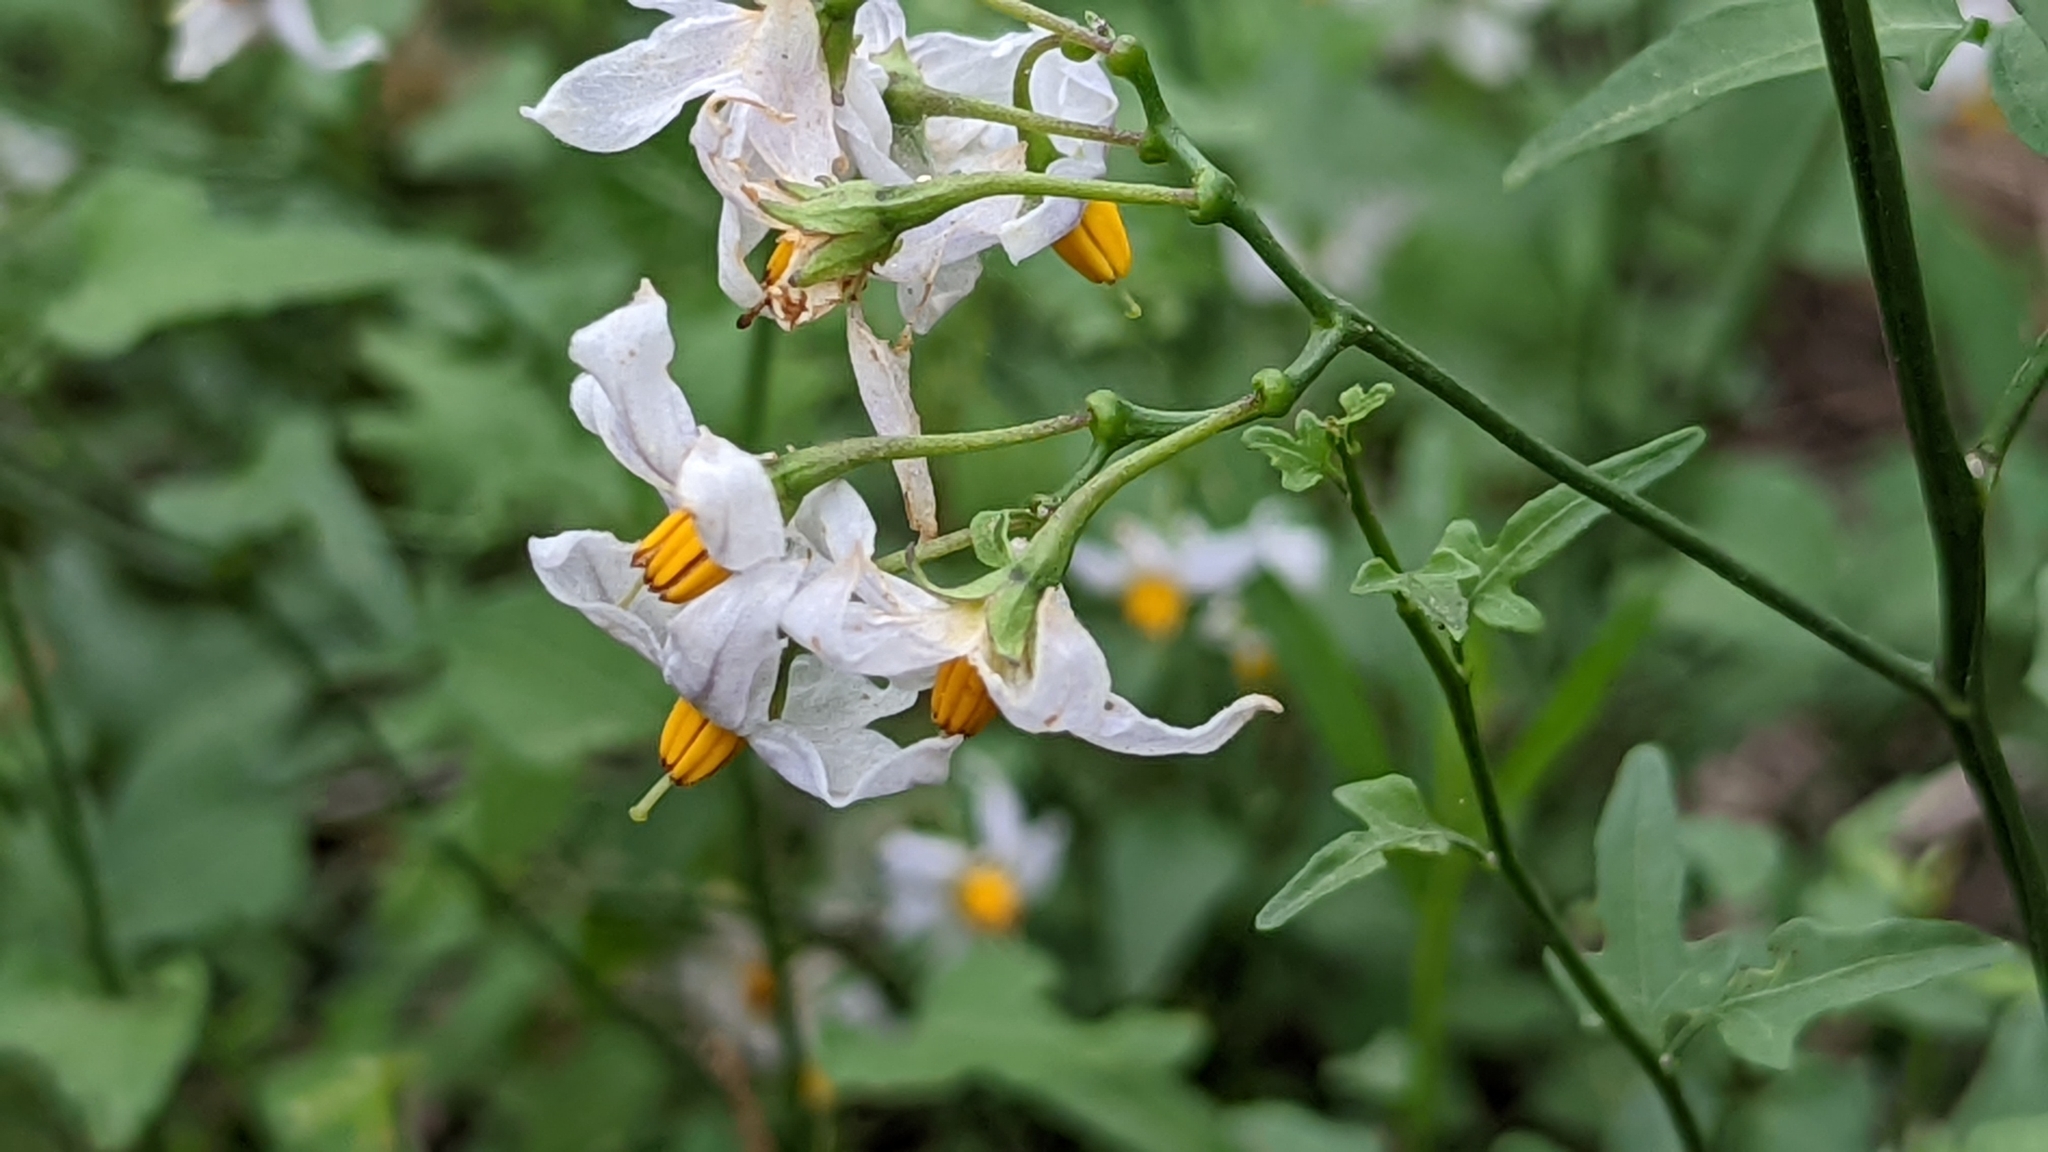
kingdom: Plantae
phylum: Tracheophyta
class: Magnoliopsida
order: Solanales
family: Solanaceae
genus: Solanum
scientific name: Solanum triquetrum
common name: Texas nightshade
